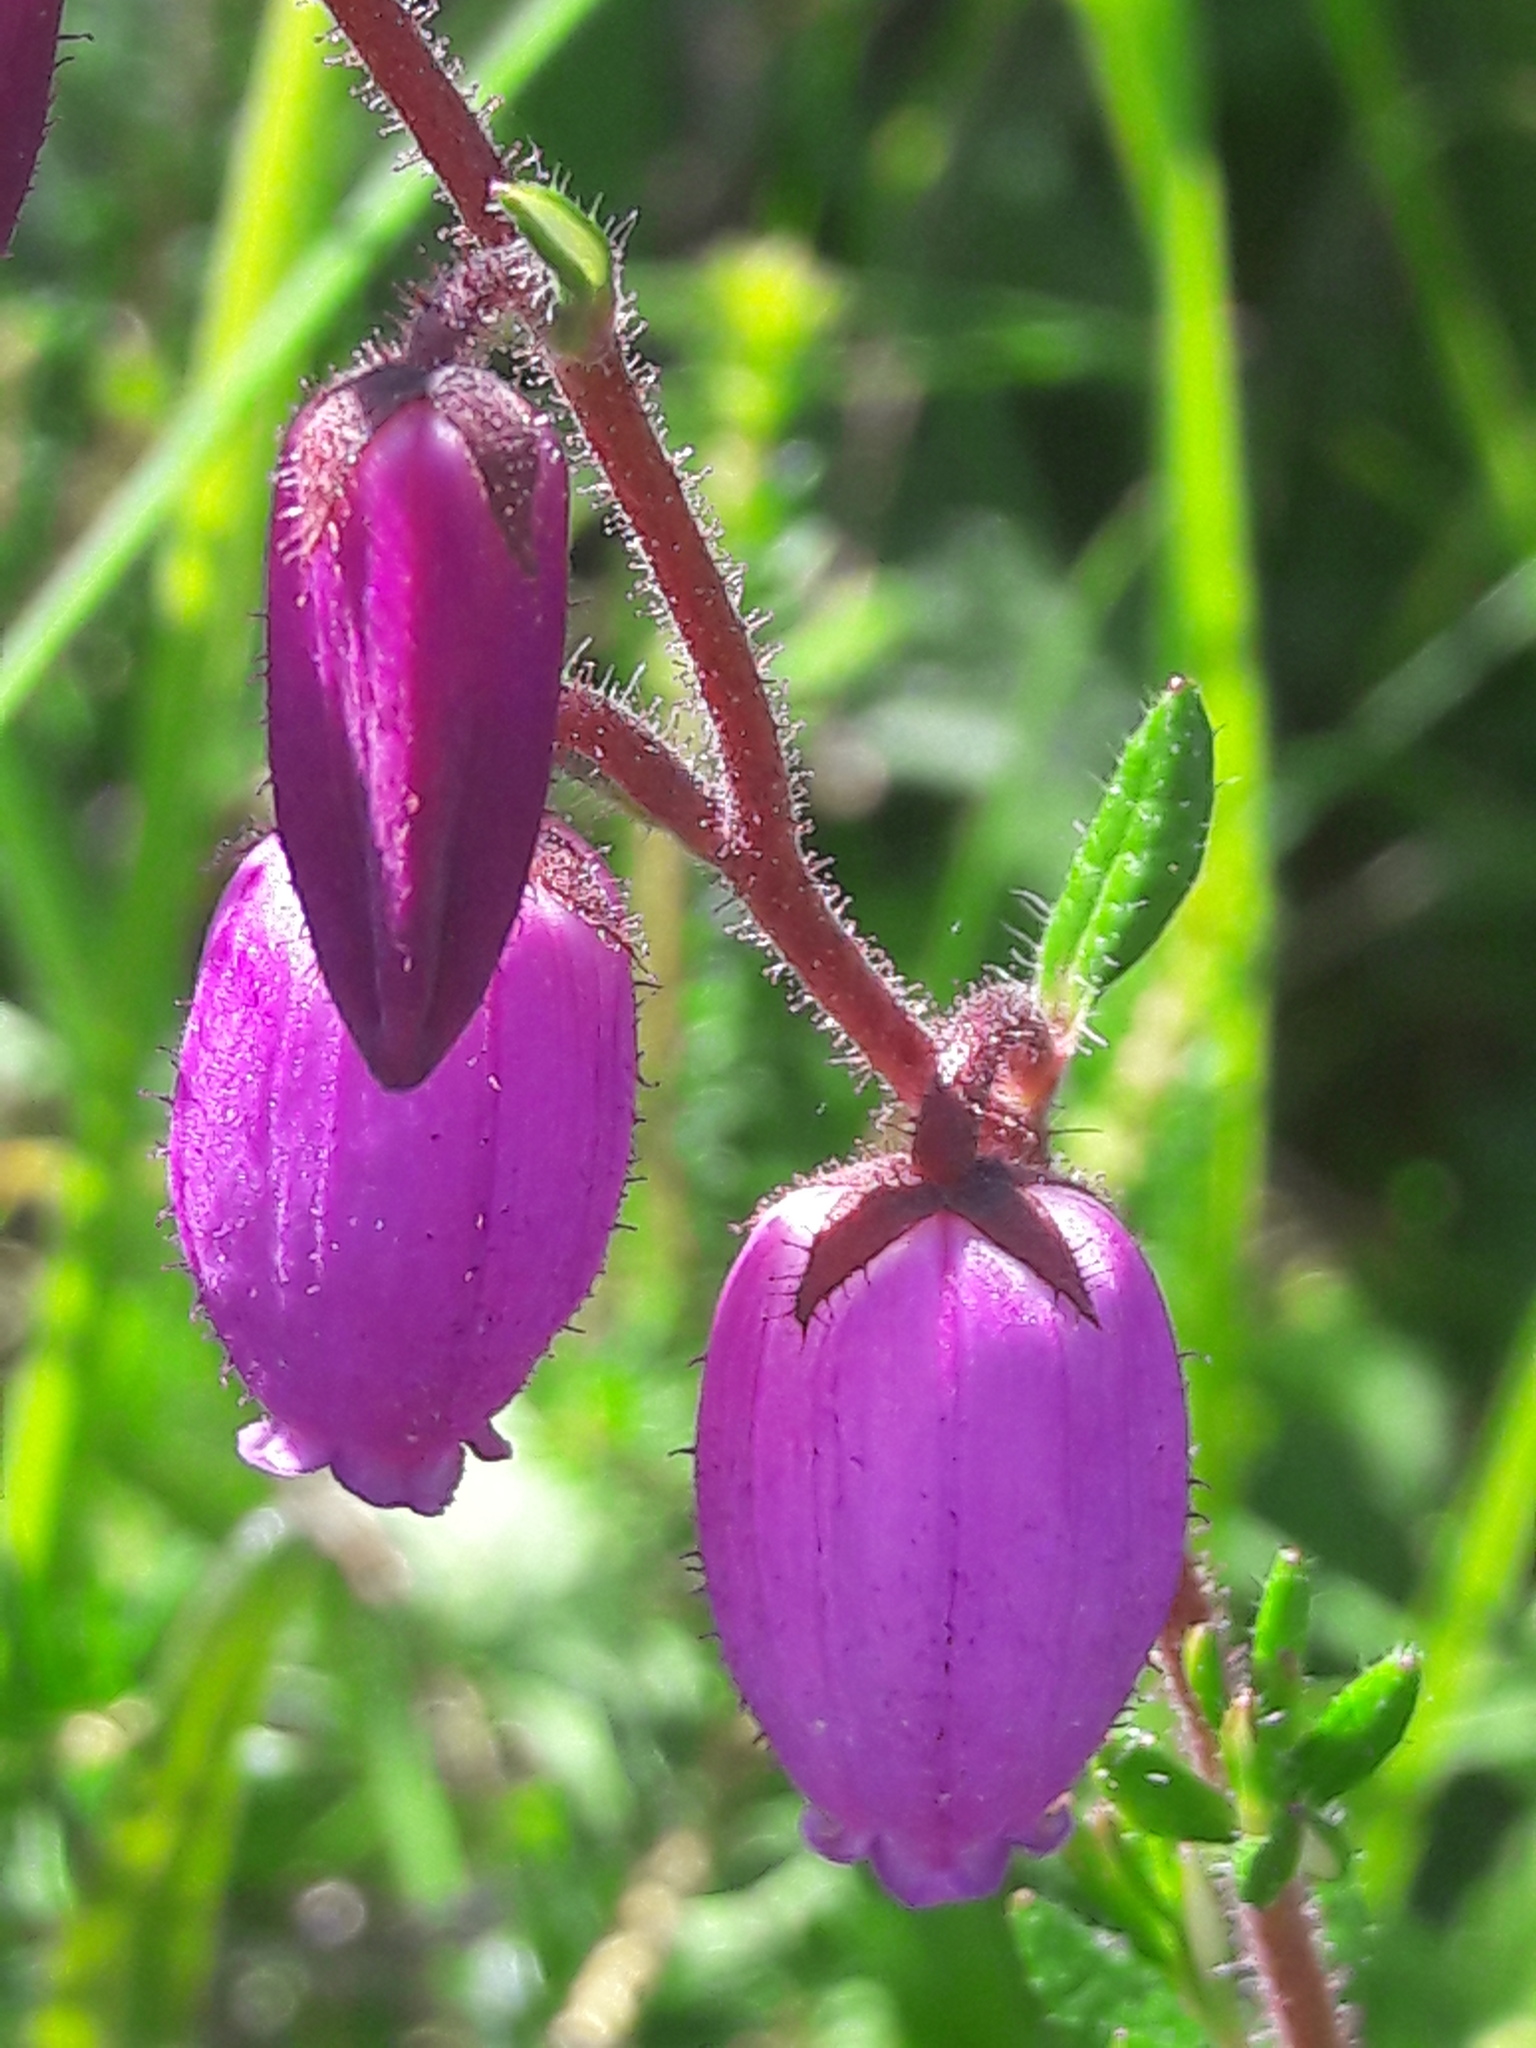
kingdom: Plantae
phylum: Tracheophyta
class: Magnoliopsida
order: Ericales
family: Ericaceae
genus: Daboecia
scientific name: Daboecia cantabrica
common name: St. dabeoc's-heath
